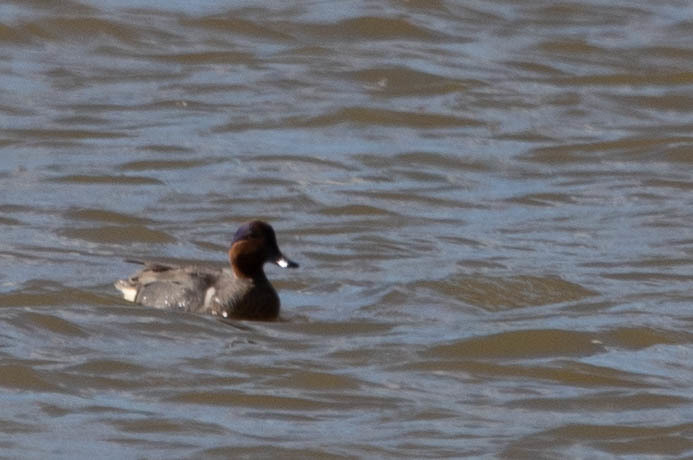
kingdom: Animalia
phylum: Chordata
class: Aves
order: Anseriformes
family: Anatidae
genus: Anas
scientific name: Anas carolinensis
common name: Green-winged teal
